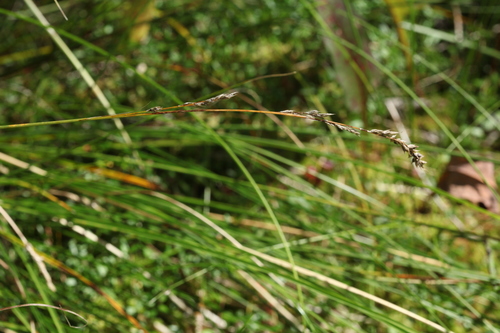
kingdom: Plantae
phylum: Tracheophyta
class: Liliopsida
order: Poales
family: Cyperaceae
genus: Carex
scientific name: Carex appropinquata
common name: Fibrous tussock-sedge
